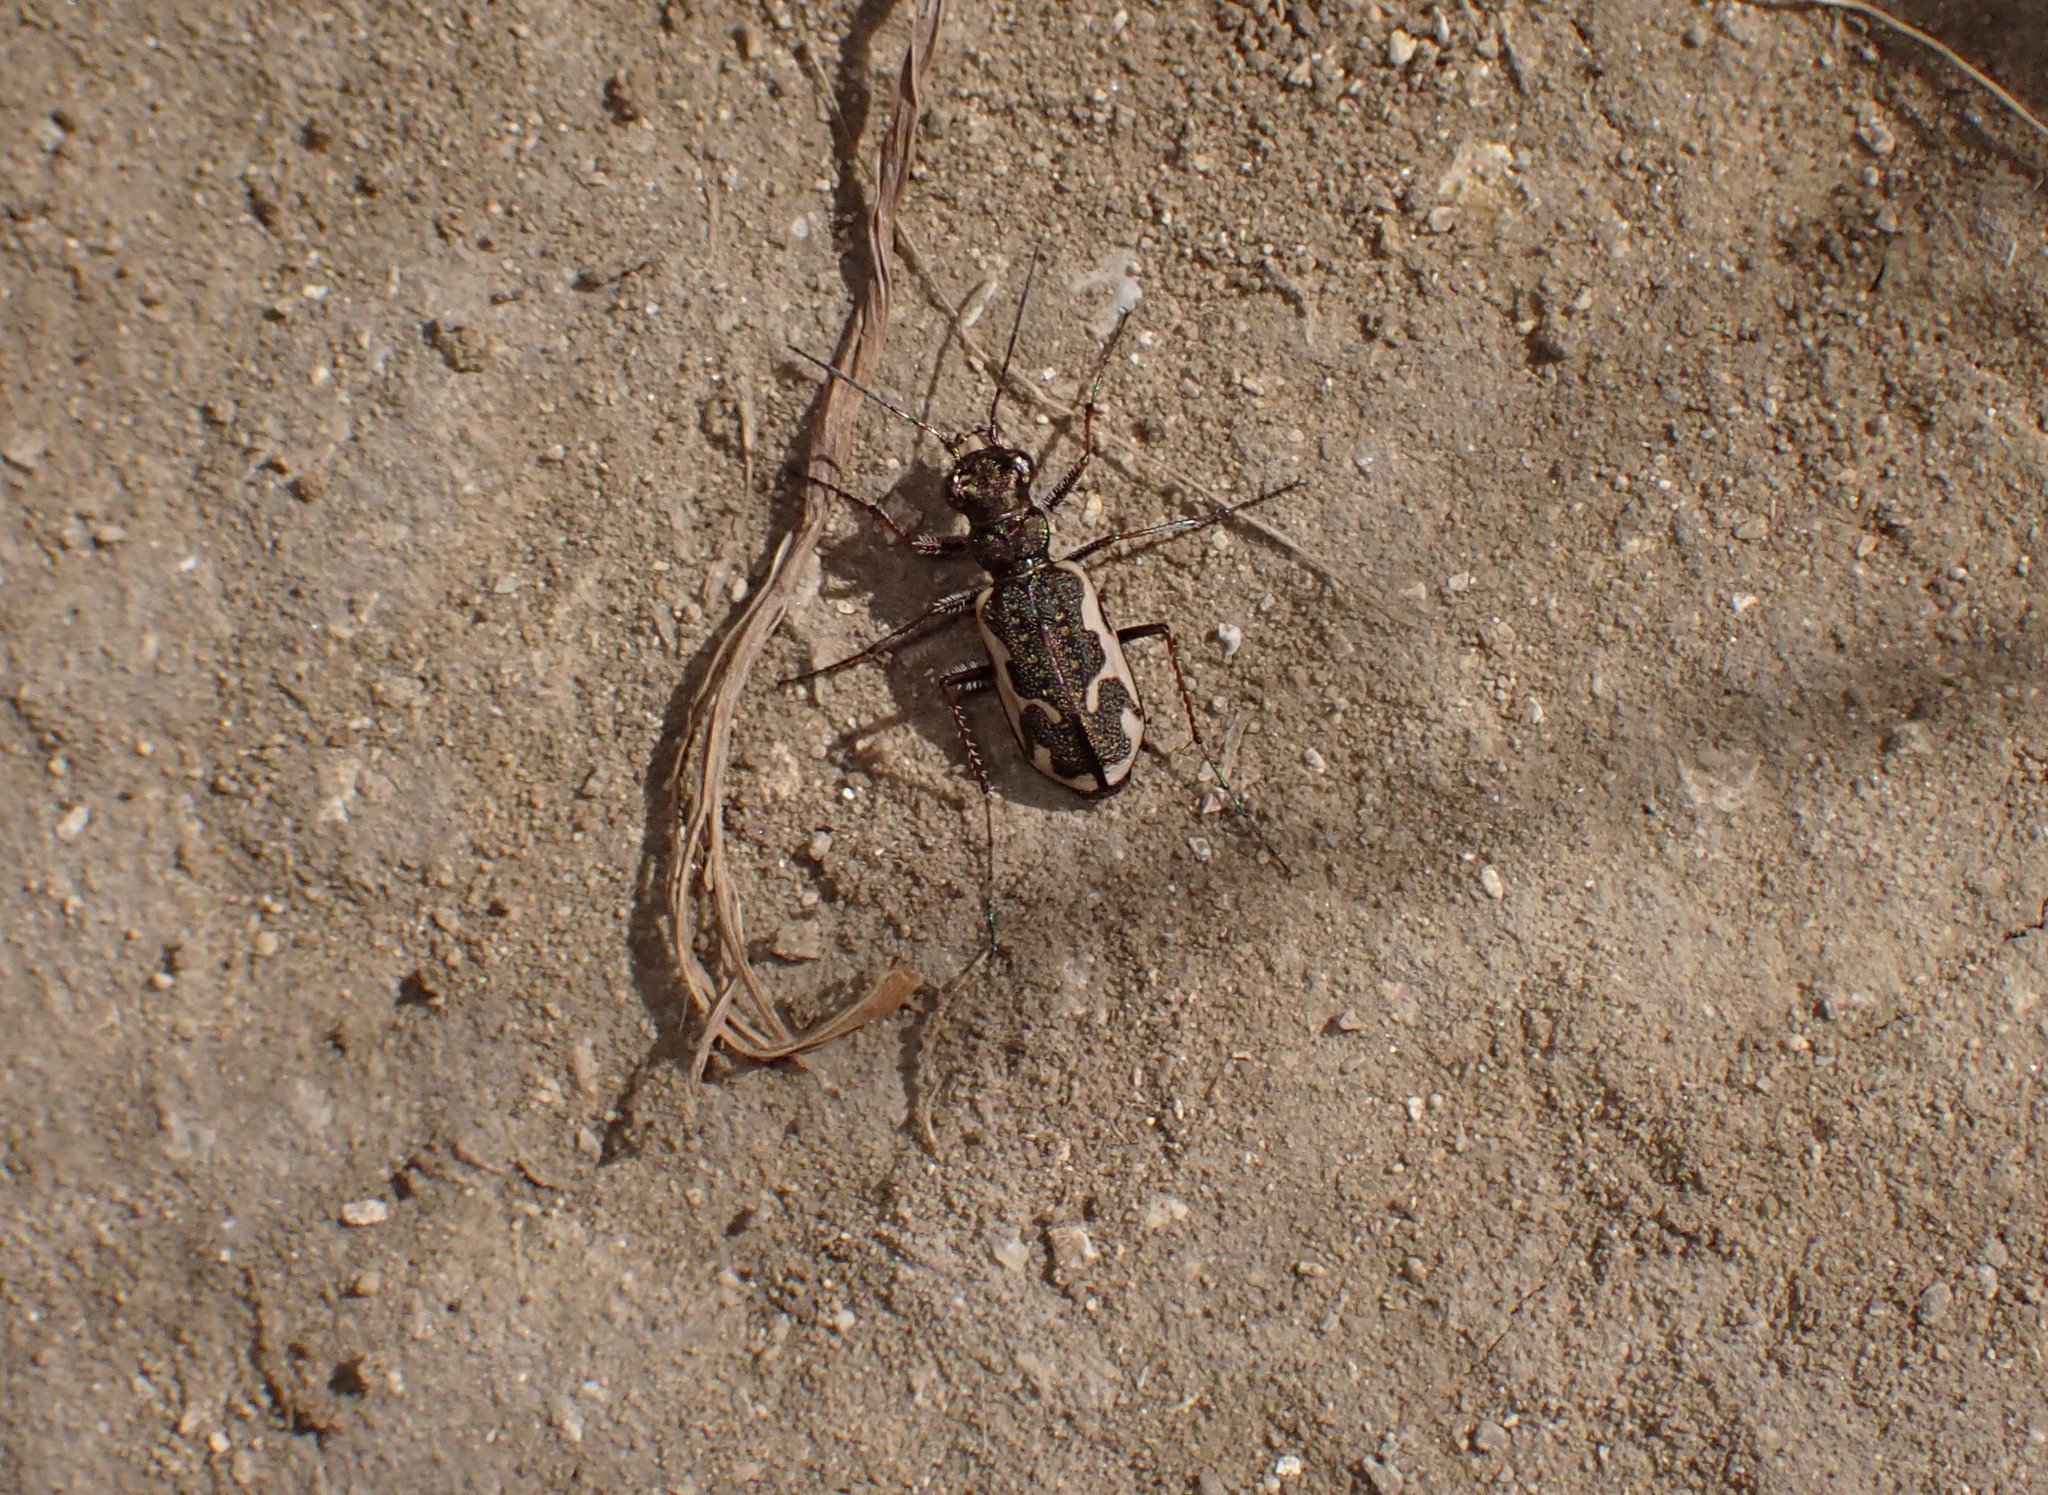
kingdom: Animalia
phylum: Arthropoda
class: Insecta
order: Coleoptera
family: Carabidae
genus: Neocicindela
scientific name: Neocicindela tuberculata
